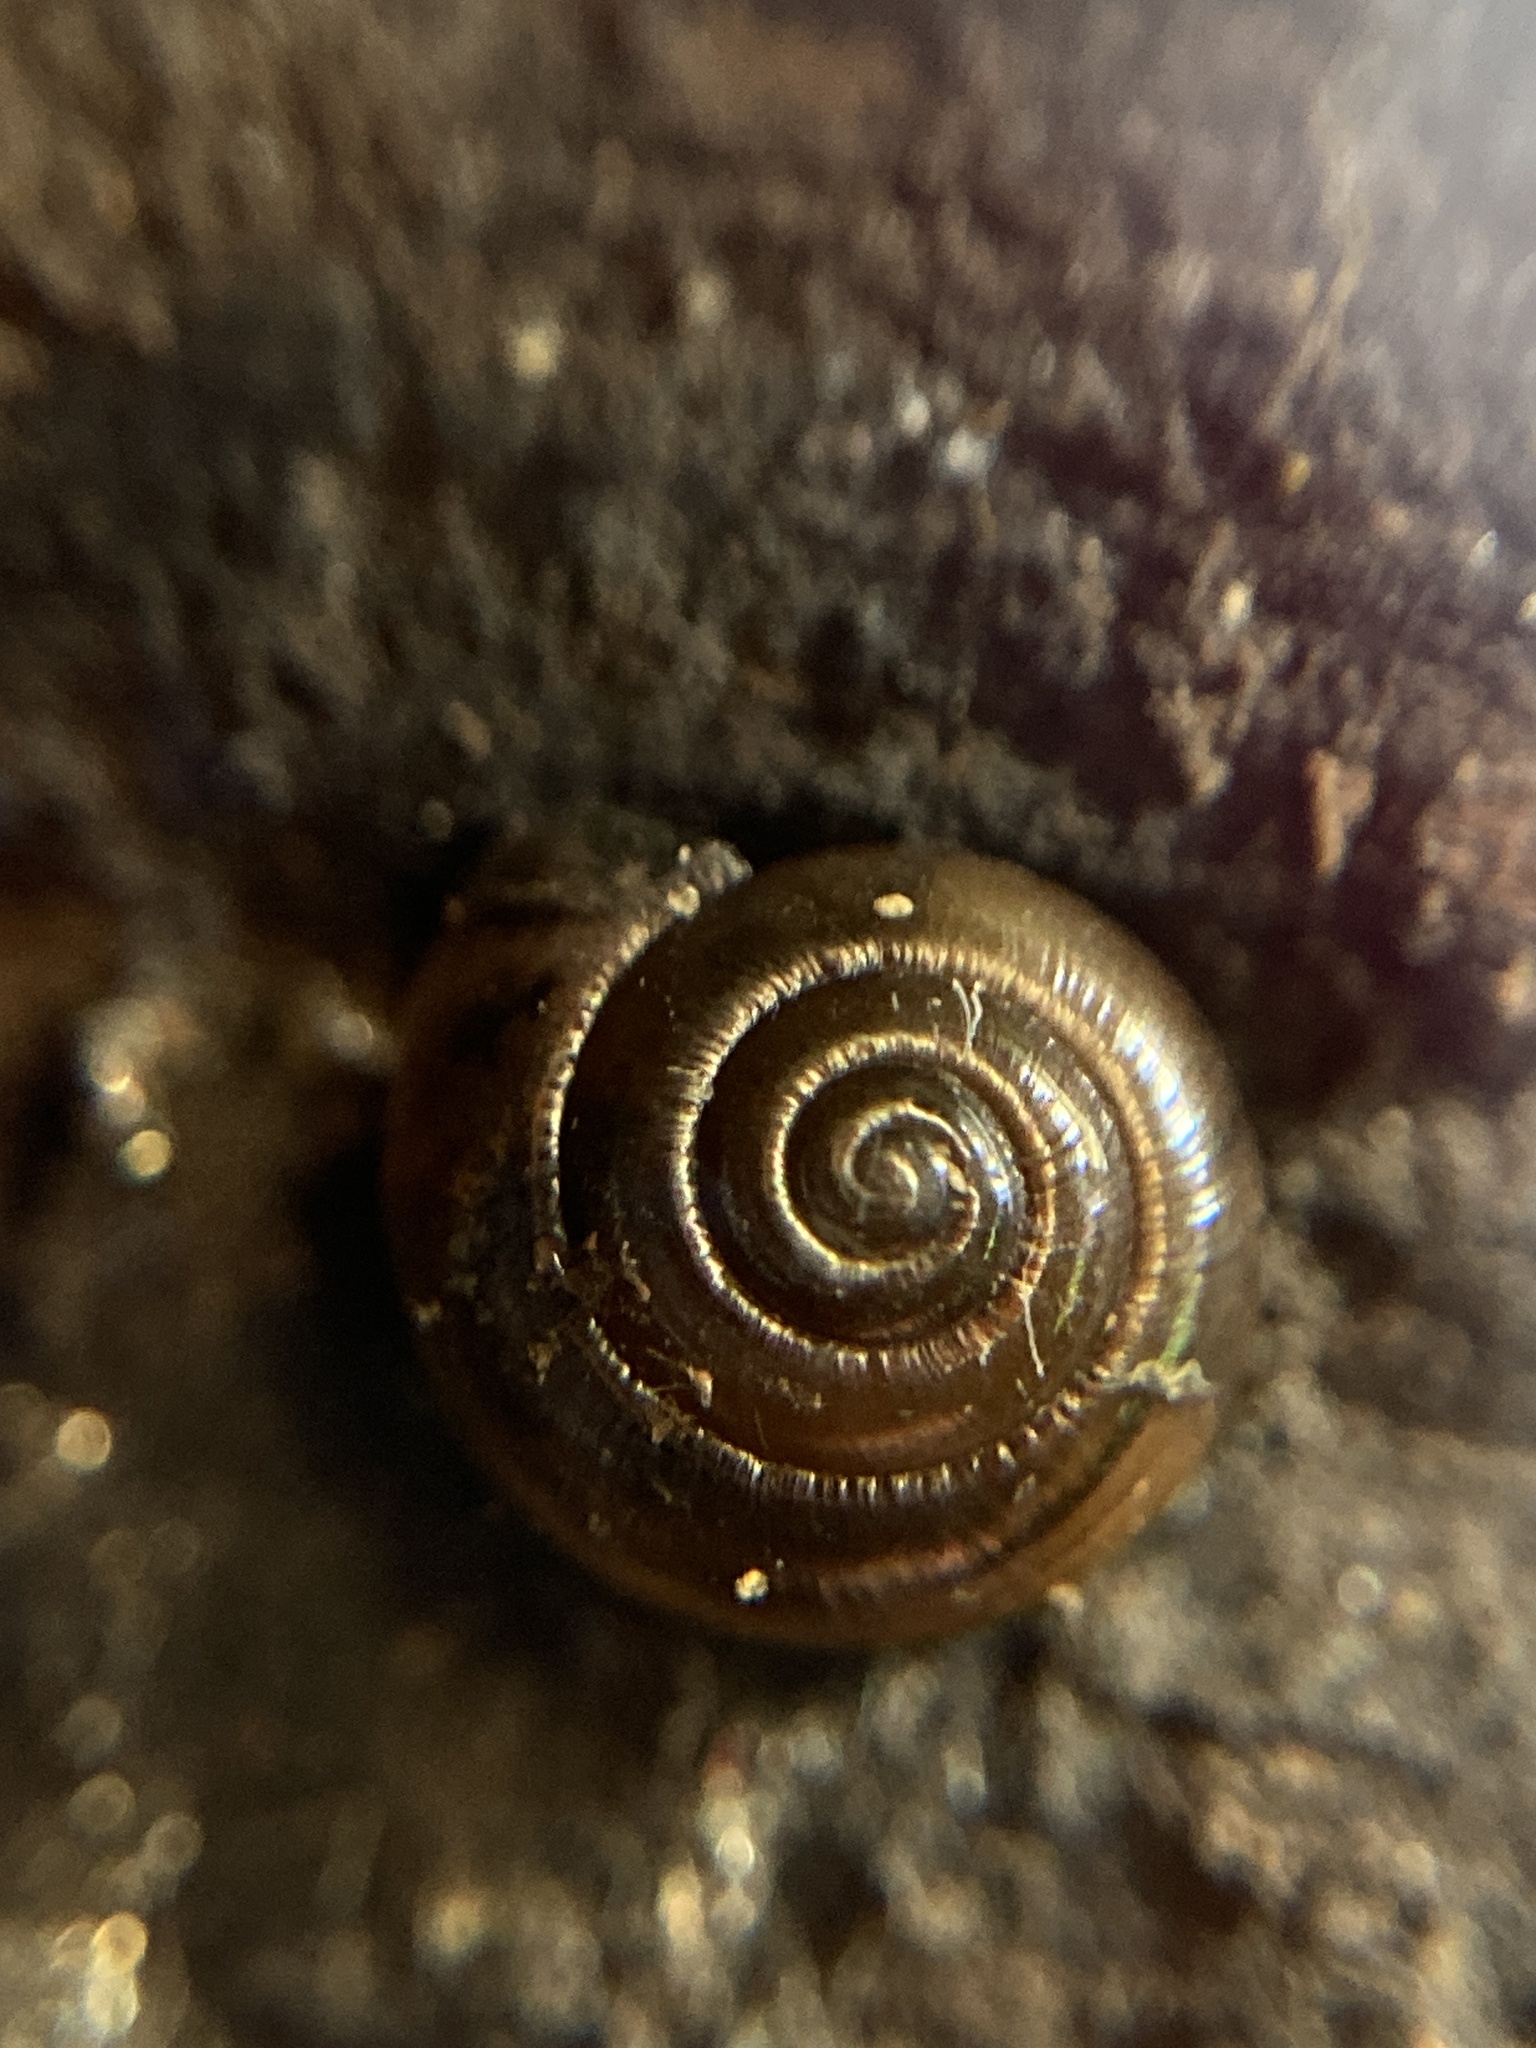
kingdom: Animalia
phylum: Mollusca
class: Gastropoda
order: Stylommatophora
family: Gastrodontidae
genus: Zonitoides
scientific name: Zonitoides arboreus
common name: Quick gloss
